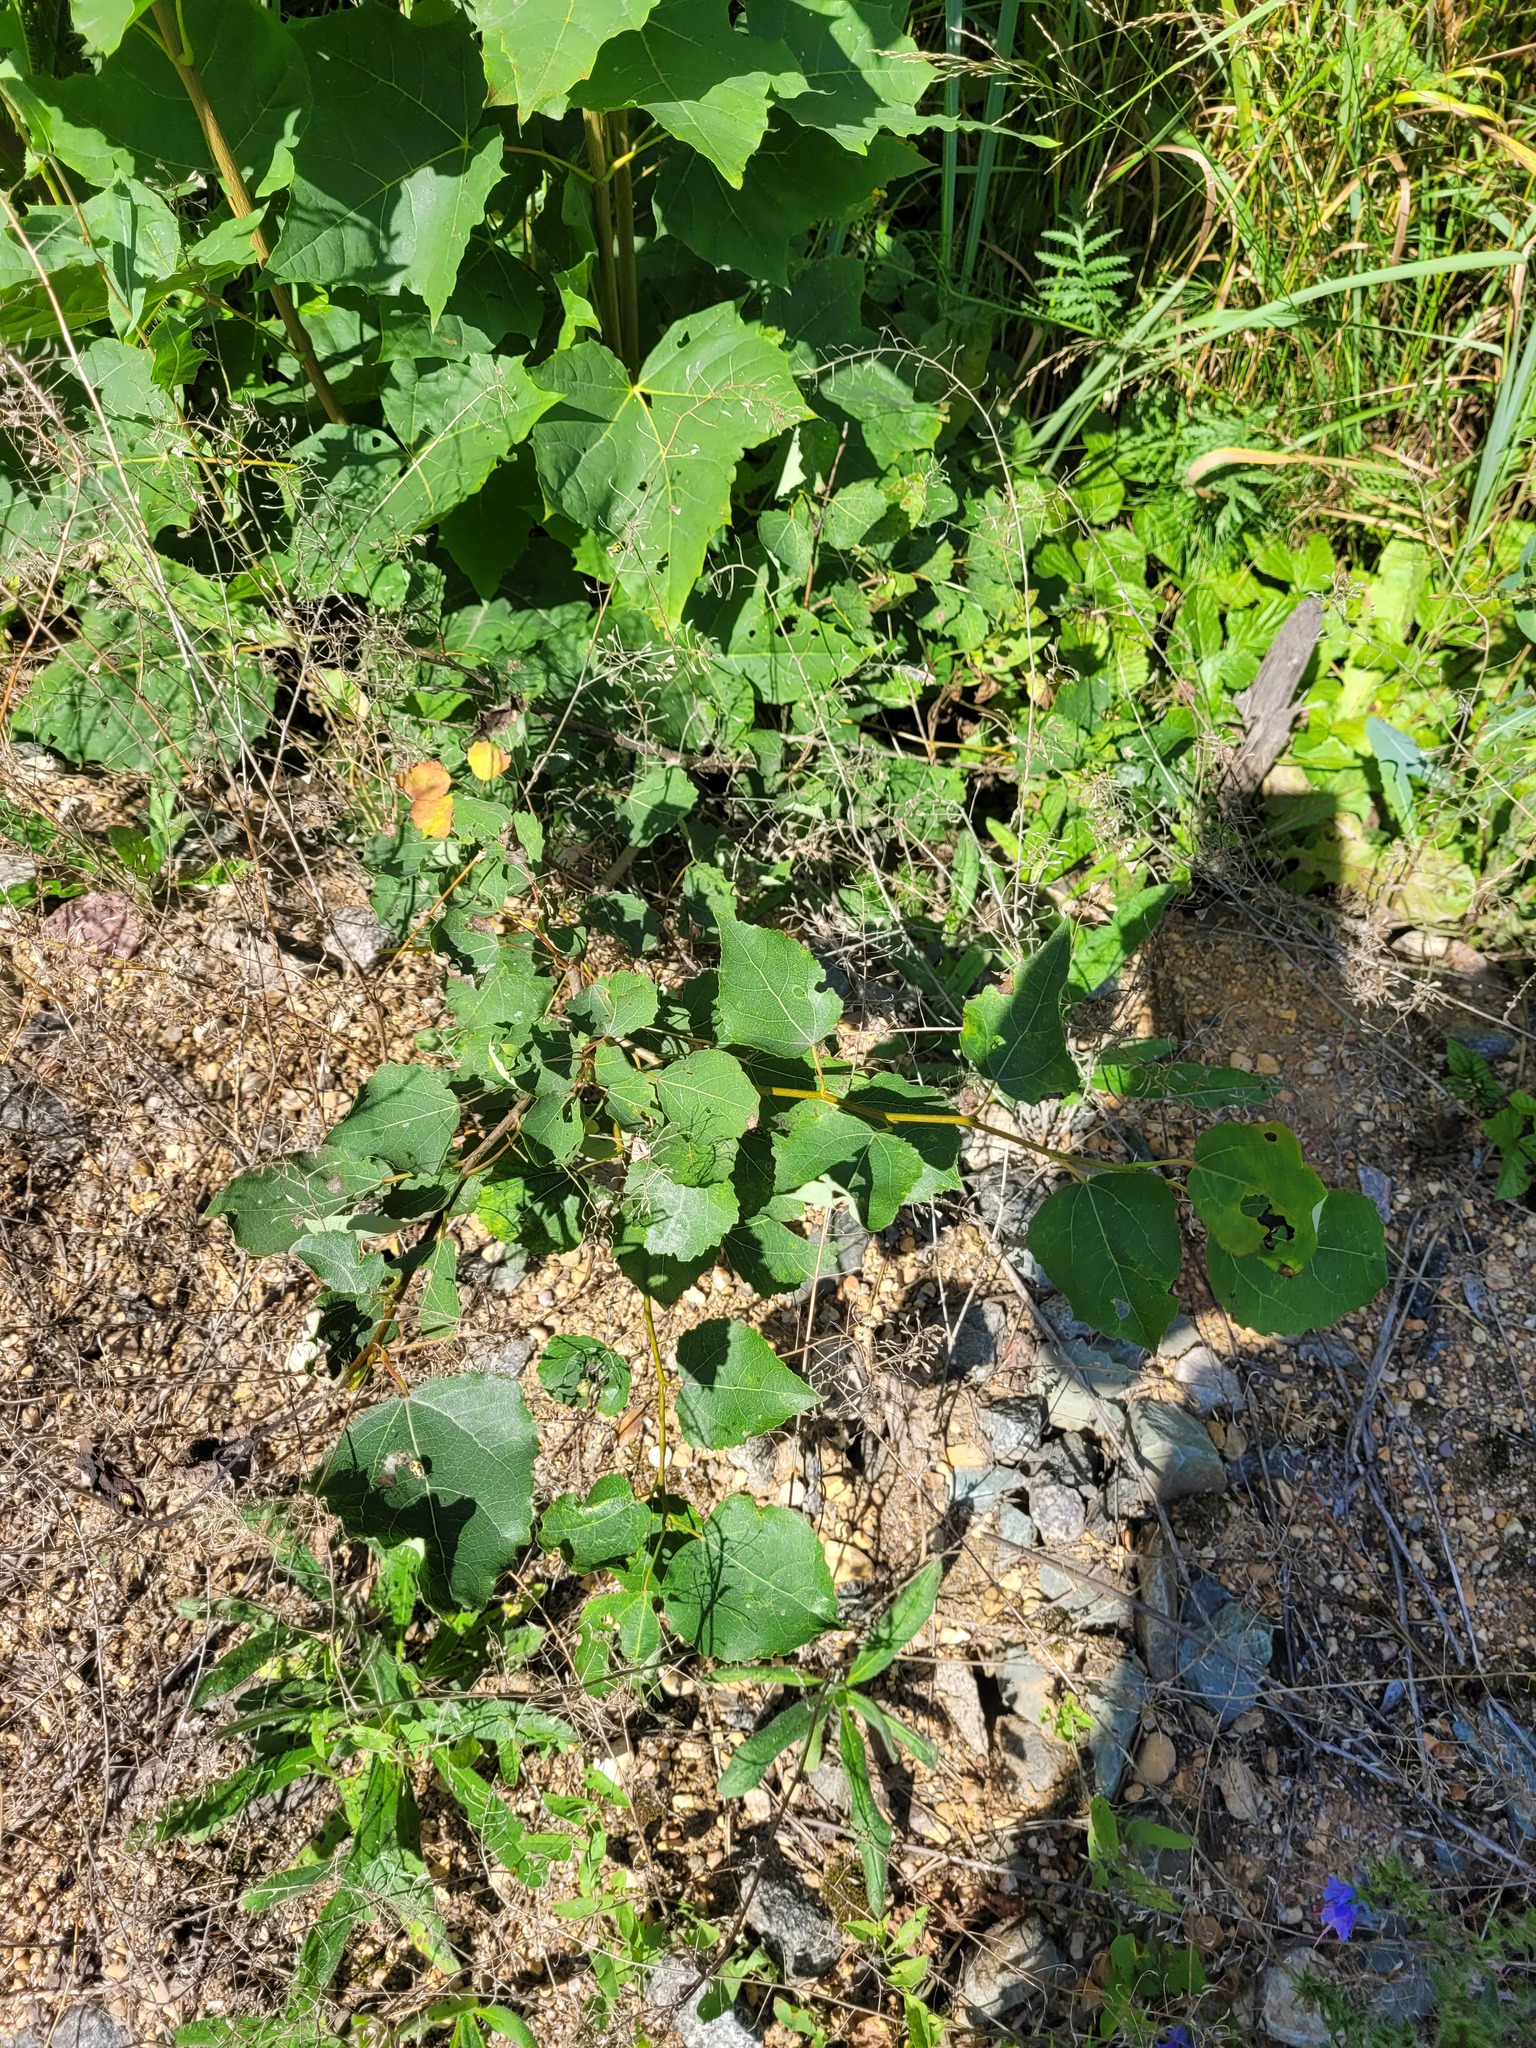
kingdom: Plantae
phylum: Tracheophyta
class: Magnoliopsida
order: Malpighiales
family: Salicaceae
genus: Populus
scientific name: Populus tremula
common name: European aspen
